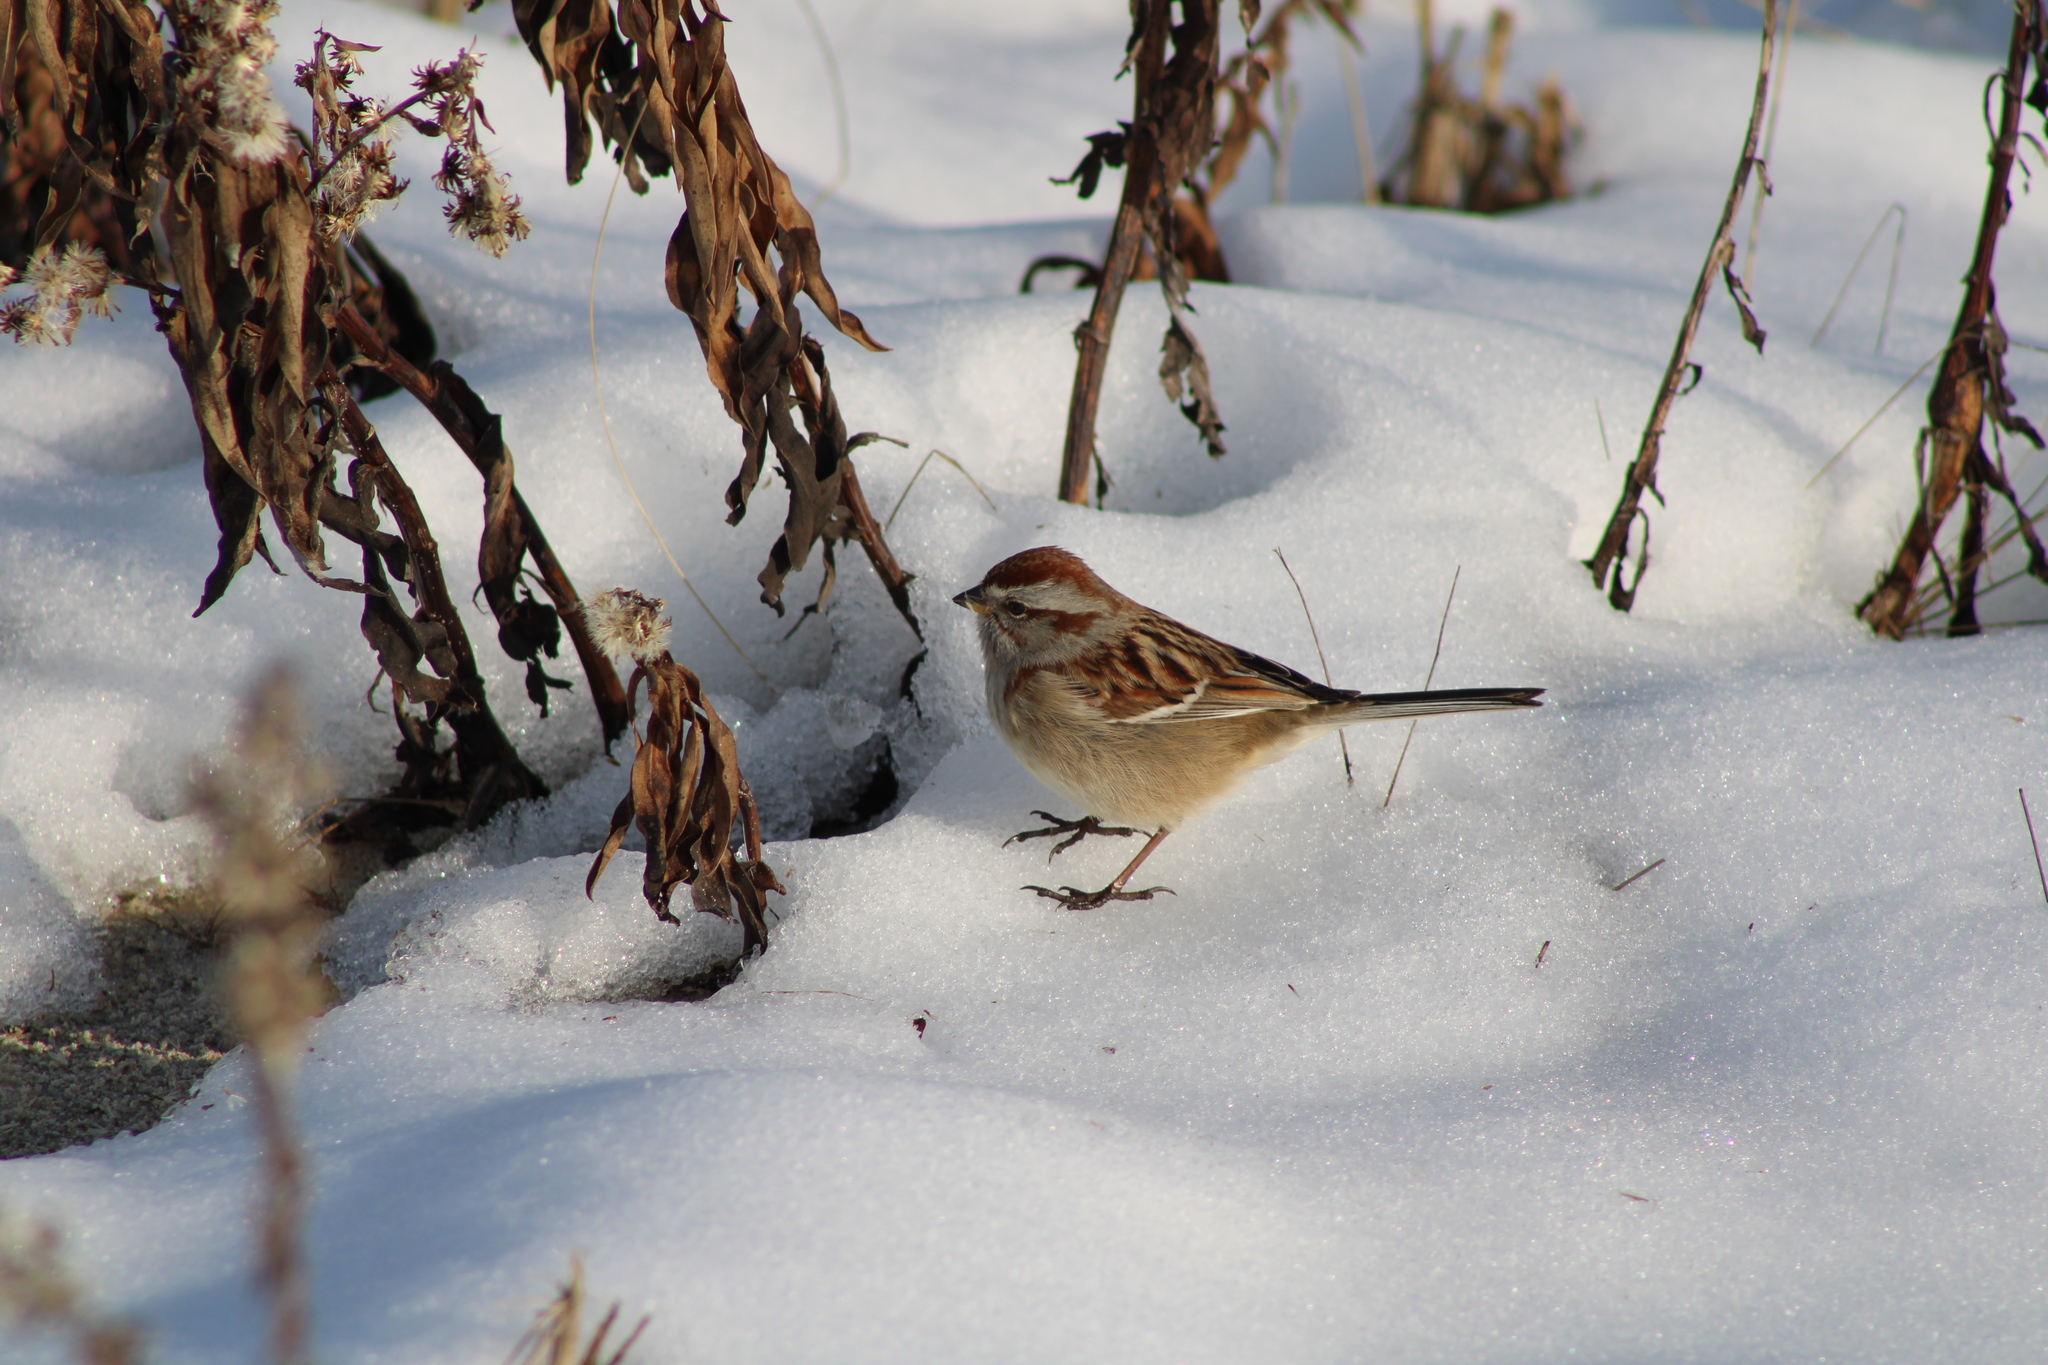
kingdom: Animalia
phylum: Chordata
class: Aves
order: Passeriformes
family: Passerellidae
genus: Spizelloides
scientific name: Spizelloides arborea
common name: American tree sparrow
